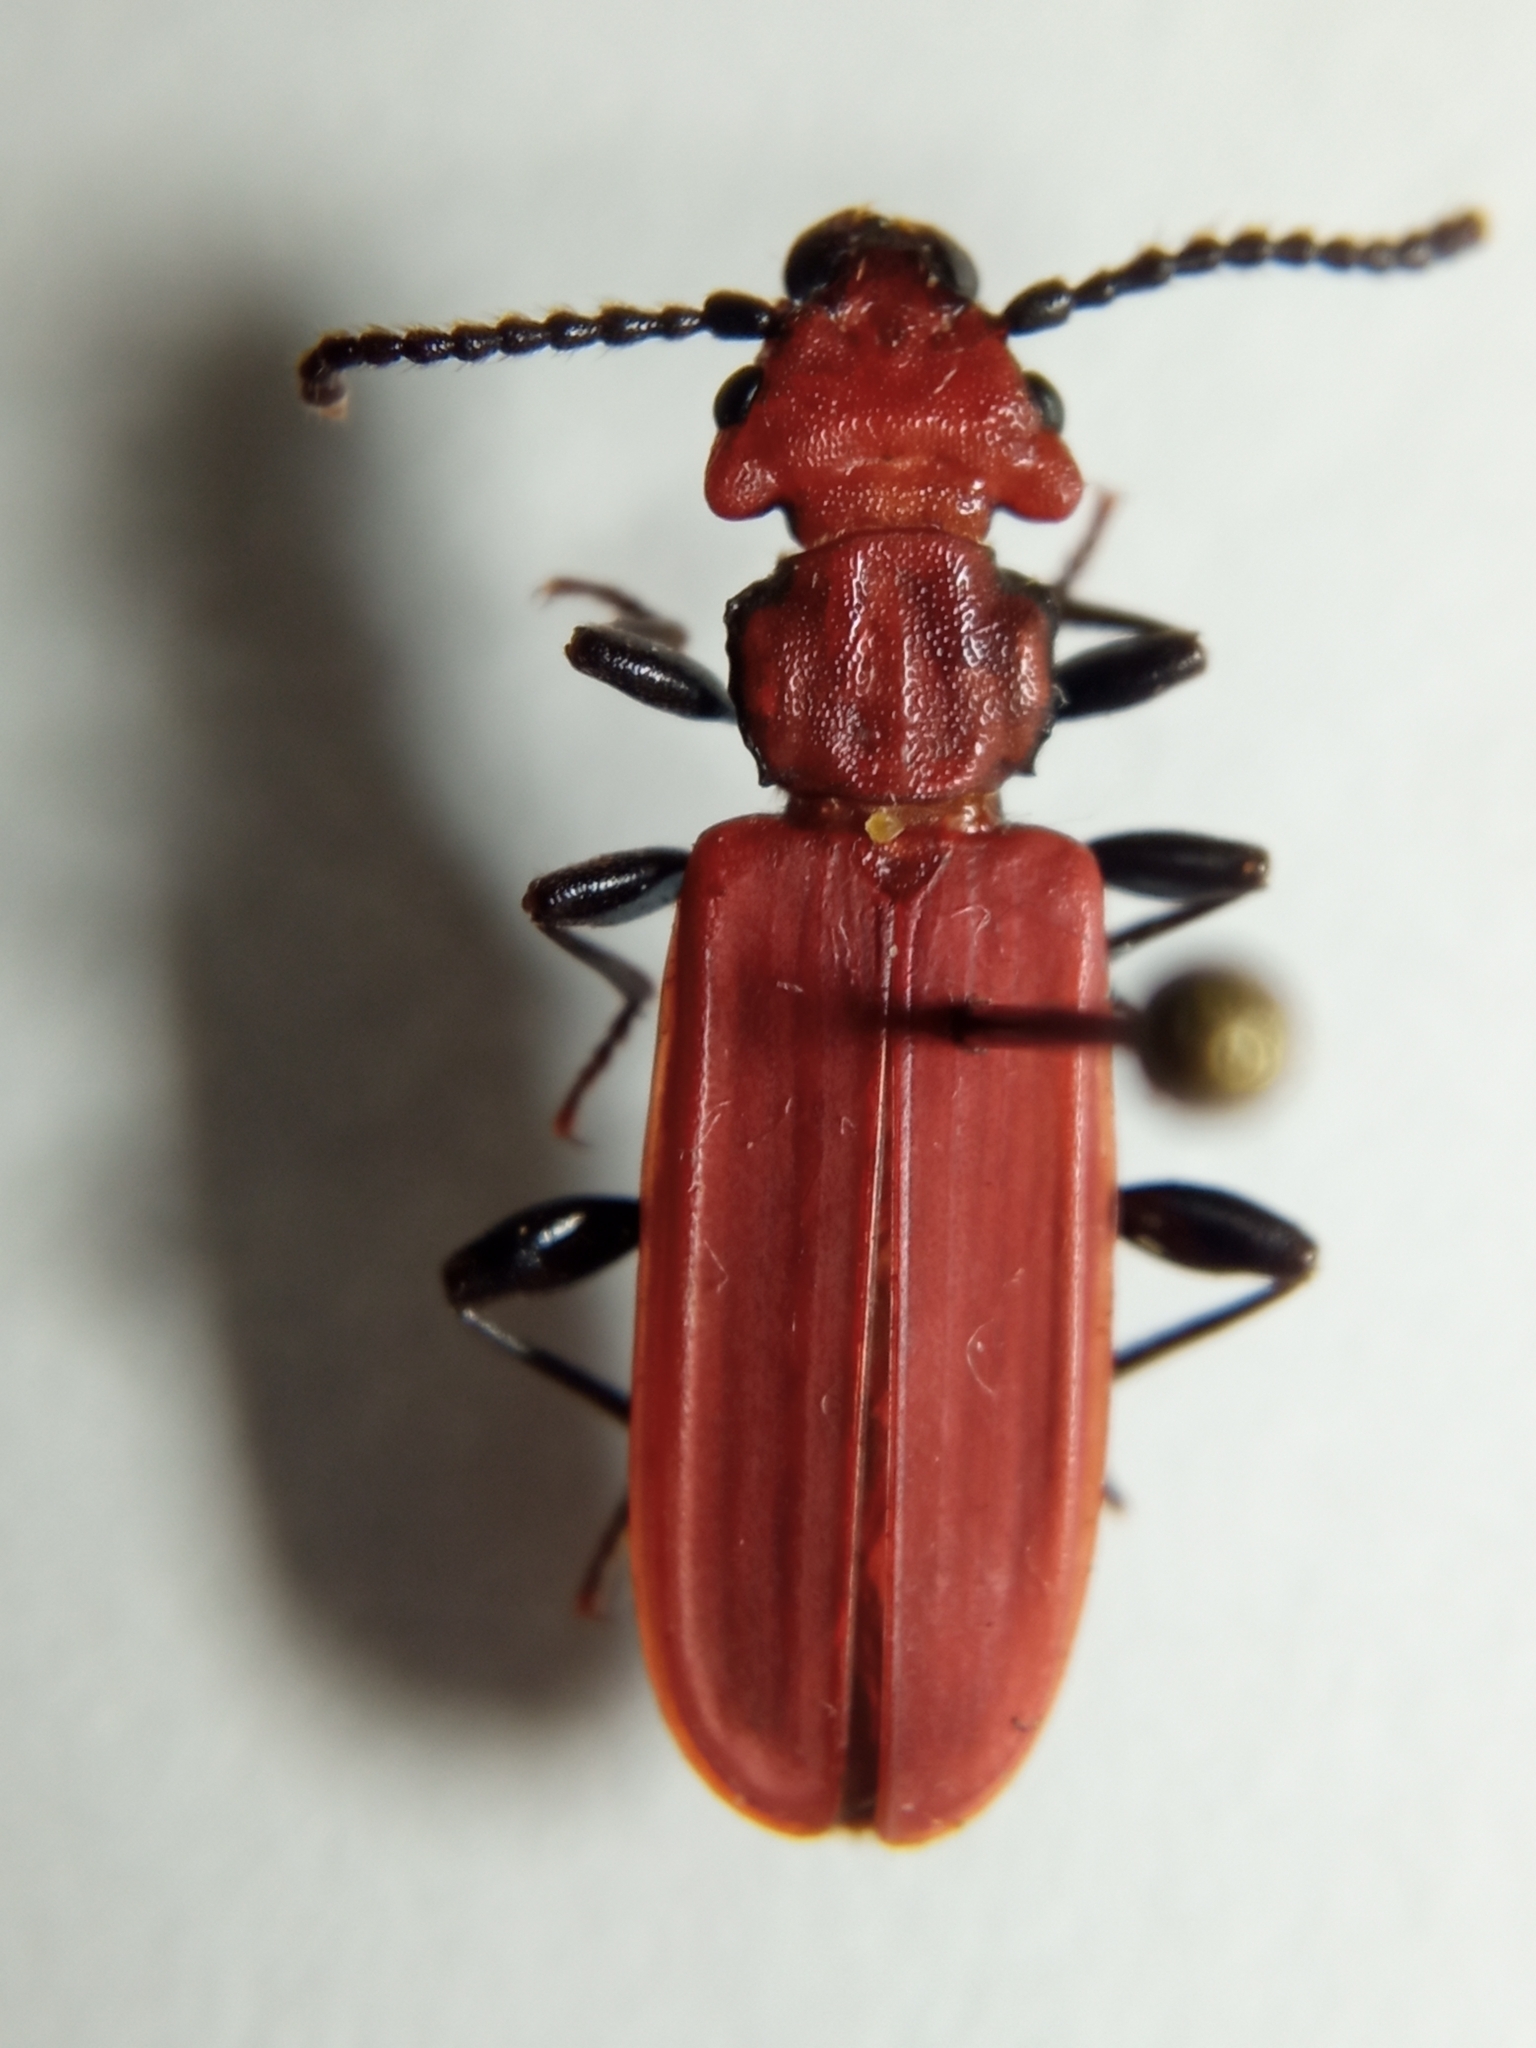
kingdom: Animalia
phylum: Arthropoda
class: Insecta
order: Coleoptera
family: Cucujidae
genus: Cucujus
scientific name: Cucujus cinnaberinus
